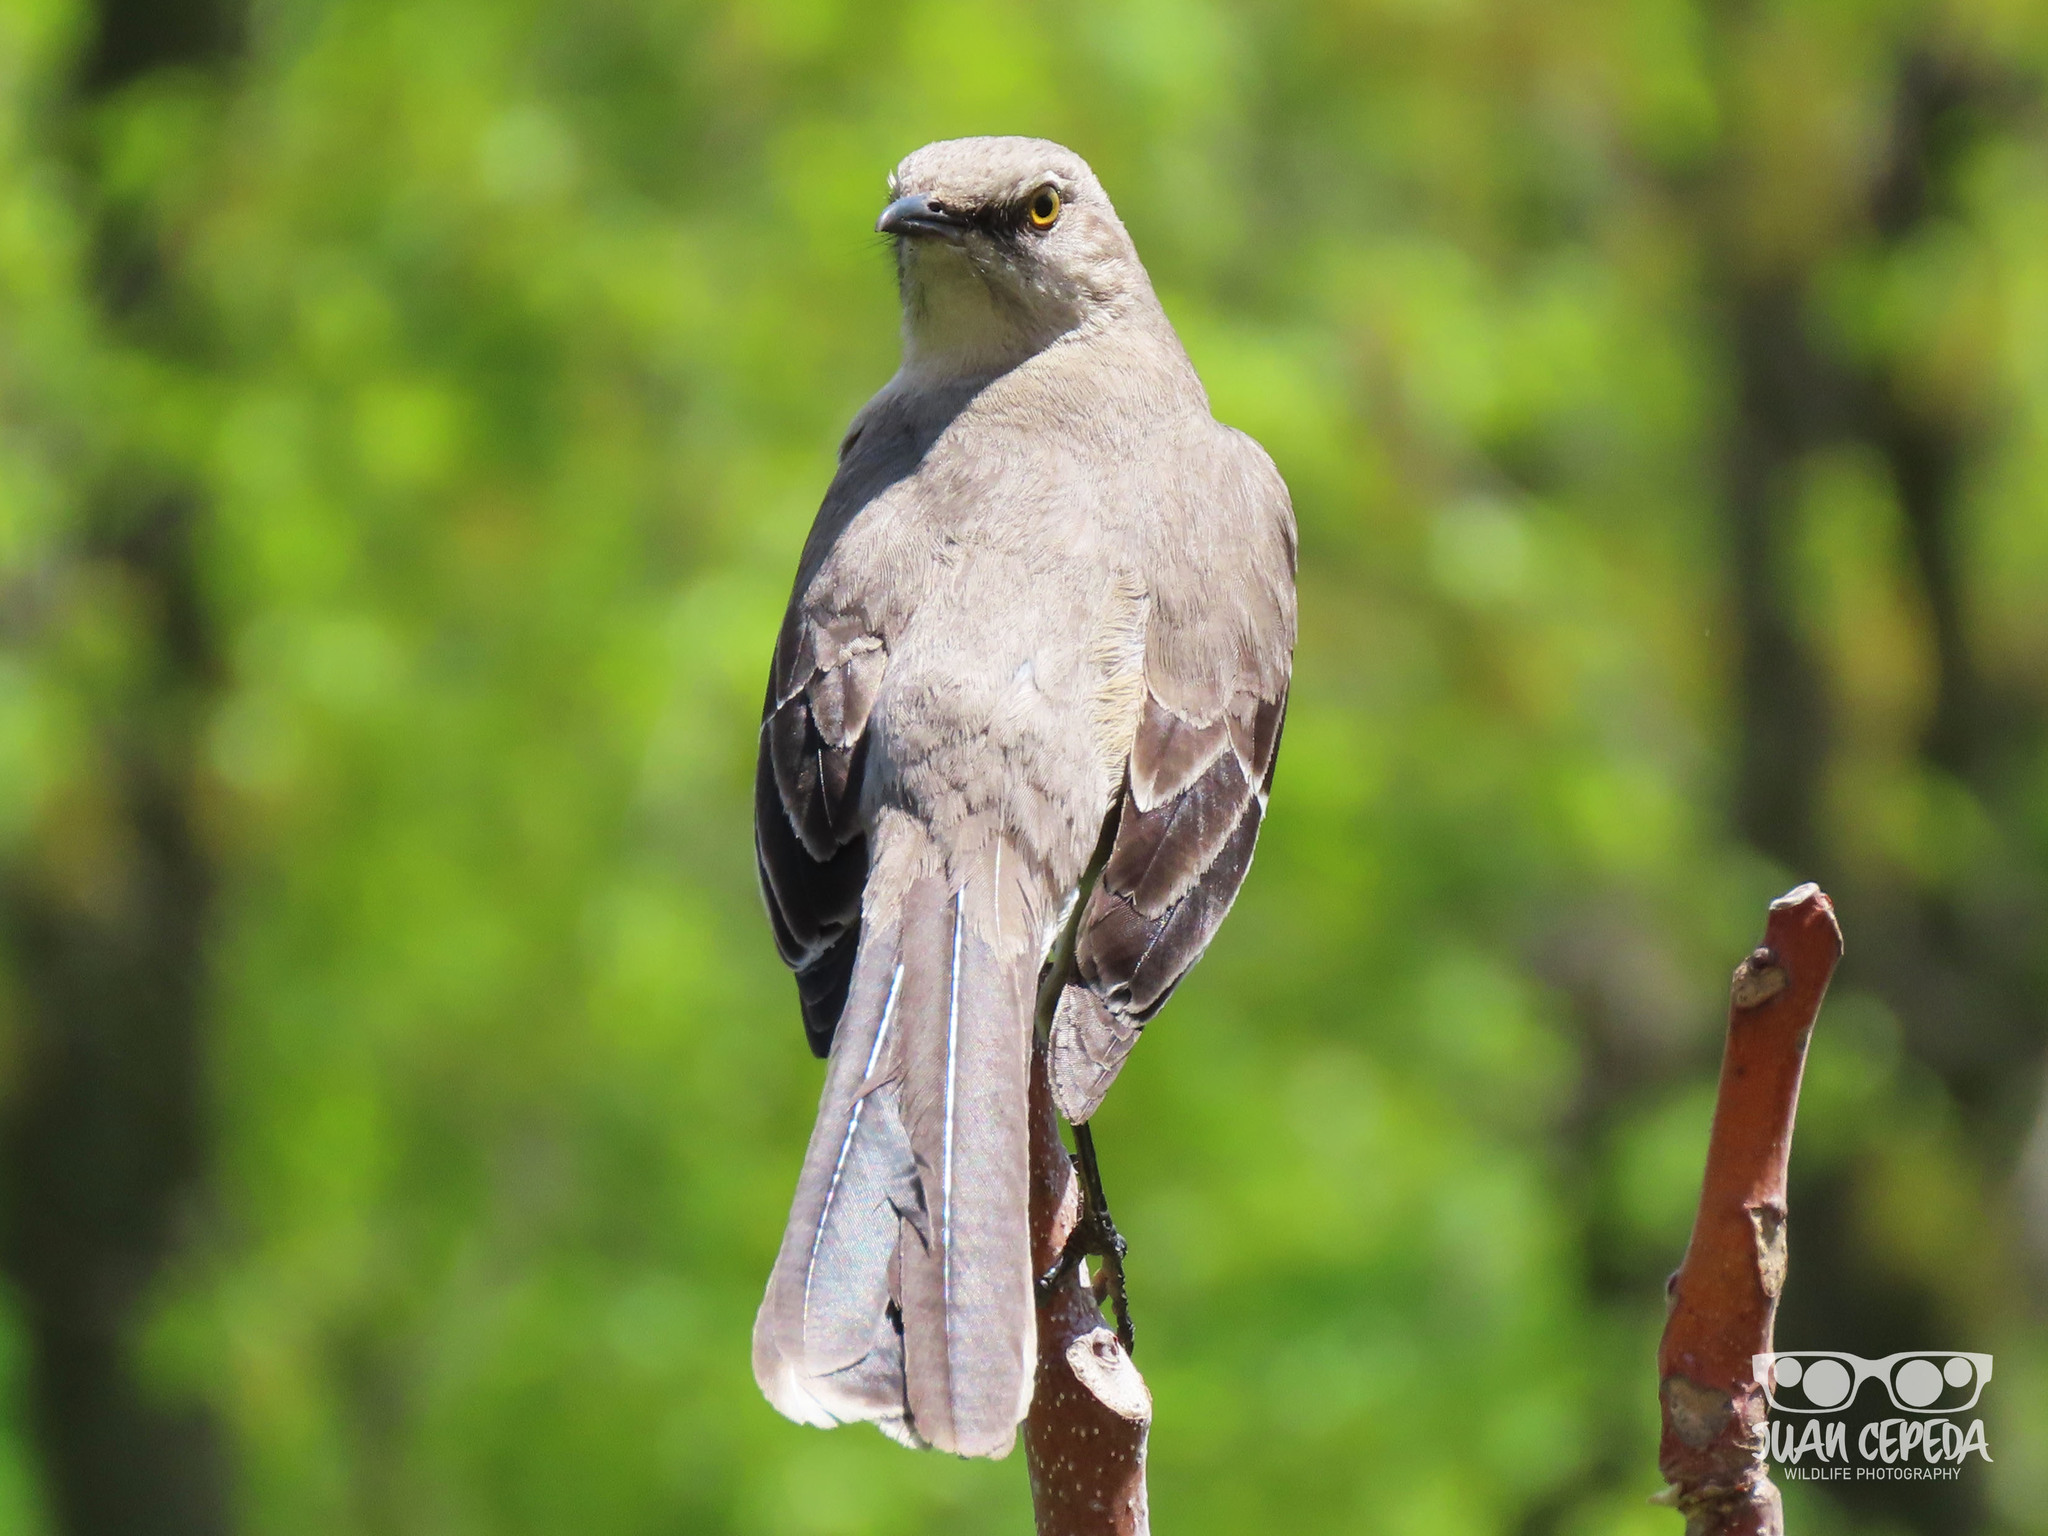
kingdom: Animalia
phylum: Chordata
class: Aves
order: Passeriformes
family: Mimidae
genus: Mimus
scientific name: Mimus polyglottos
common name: Northern mockingbird
